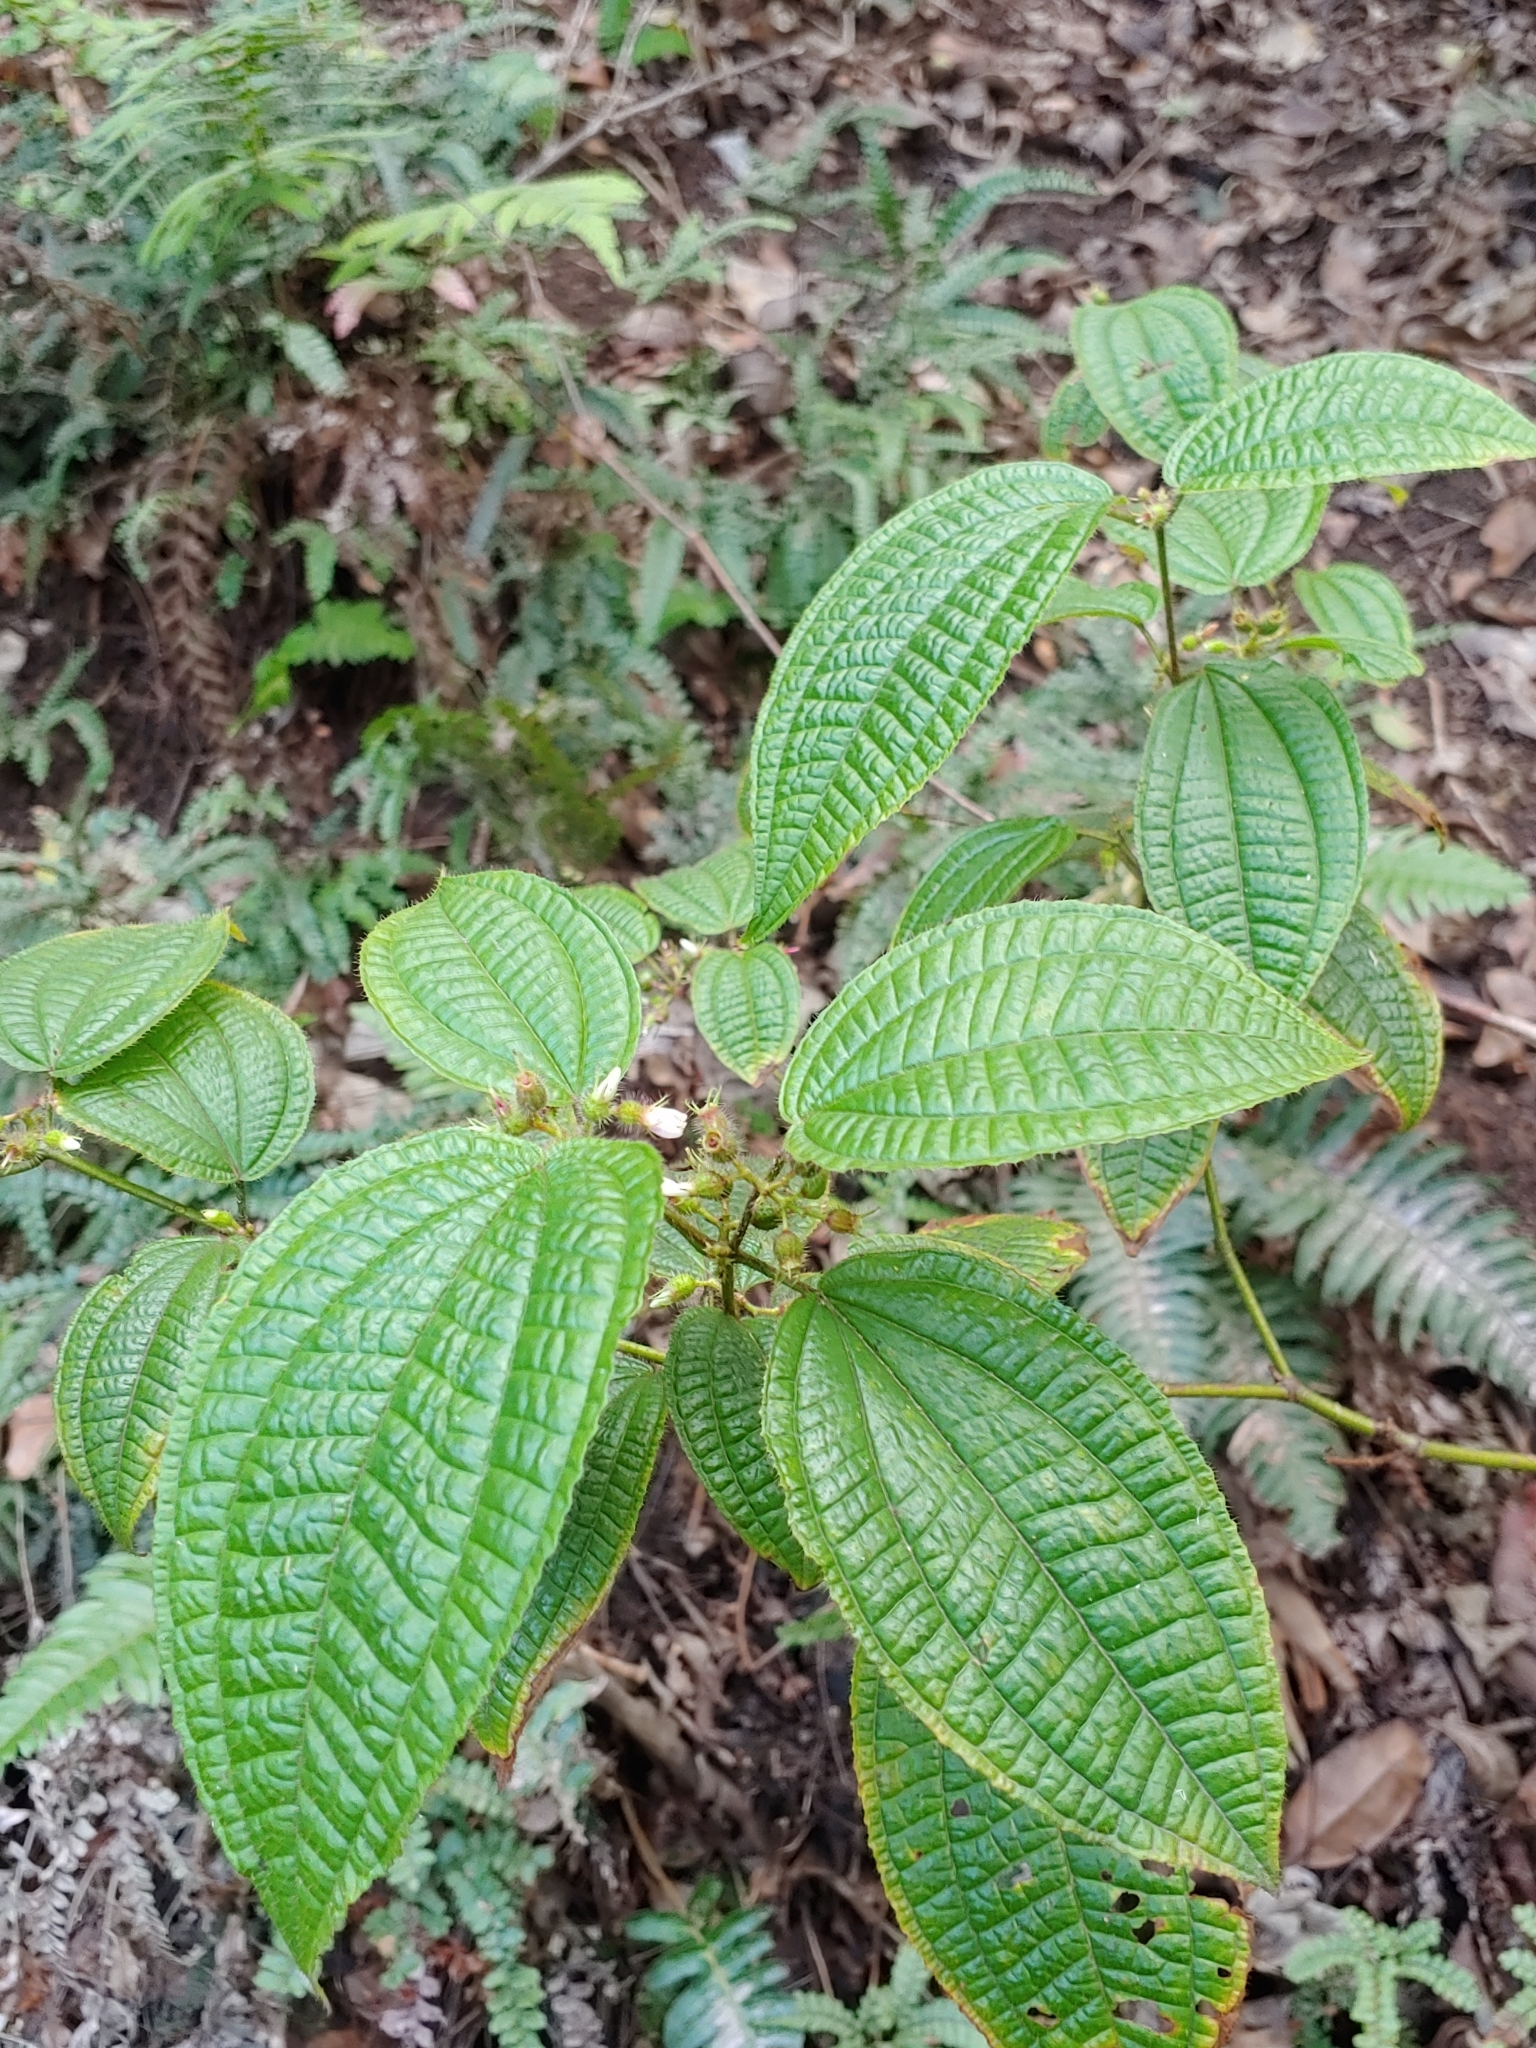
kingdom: Plantae
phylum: Tracheophyta
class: Magnoliopsida
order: Myrtales
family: Melastomataceae
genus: Miconia
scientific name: Miconia crenata
